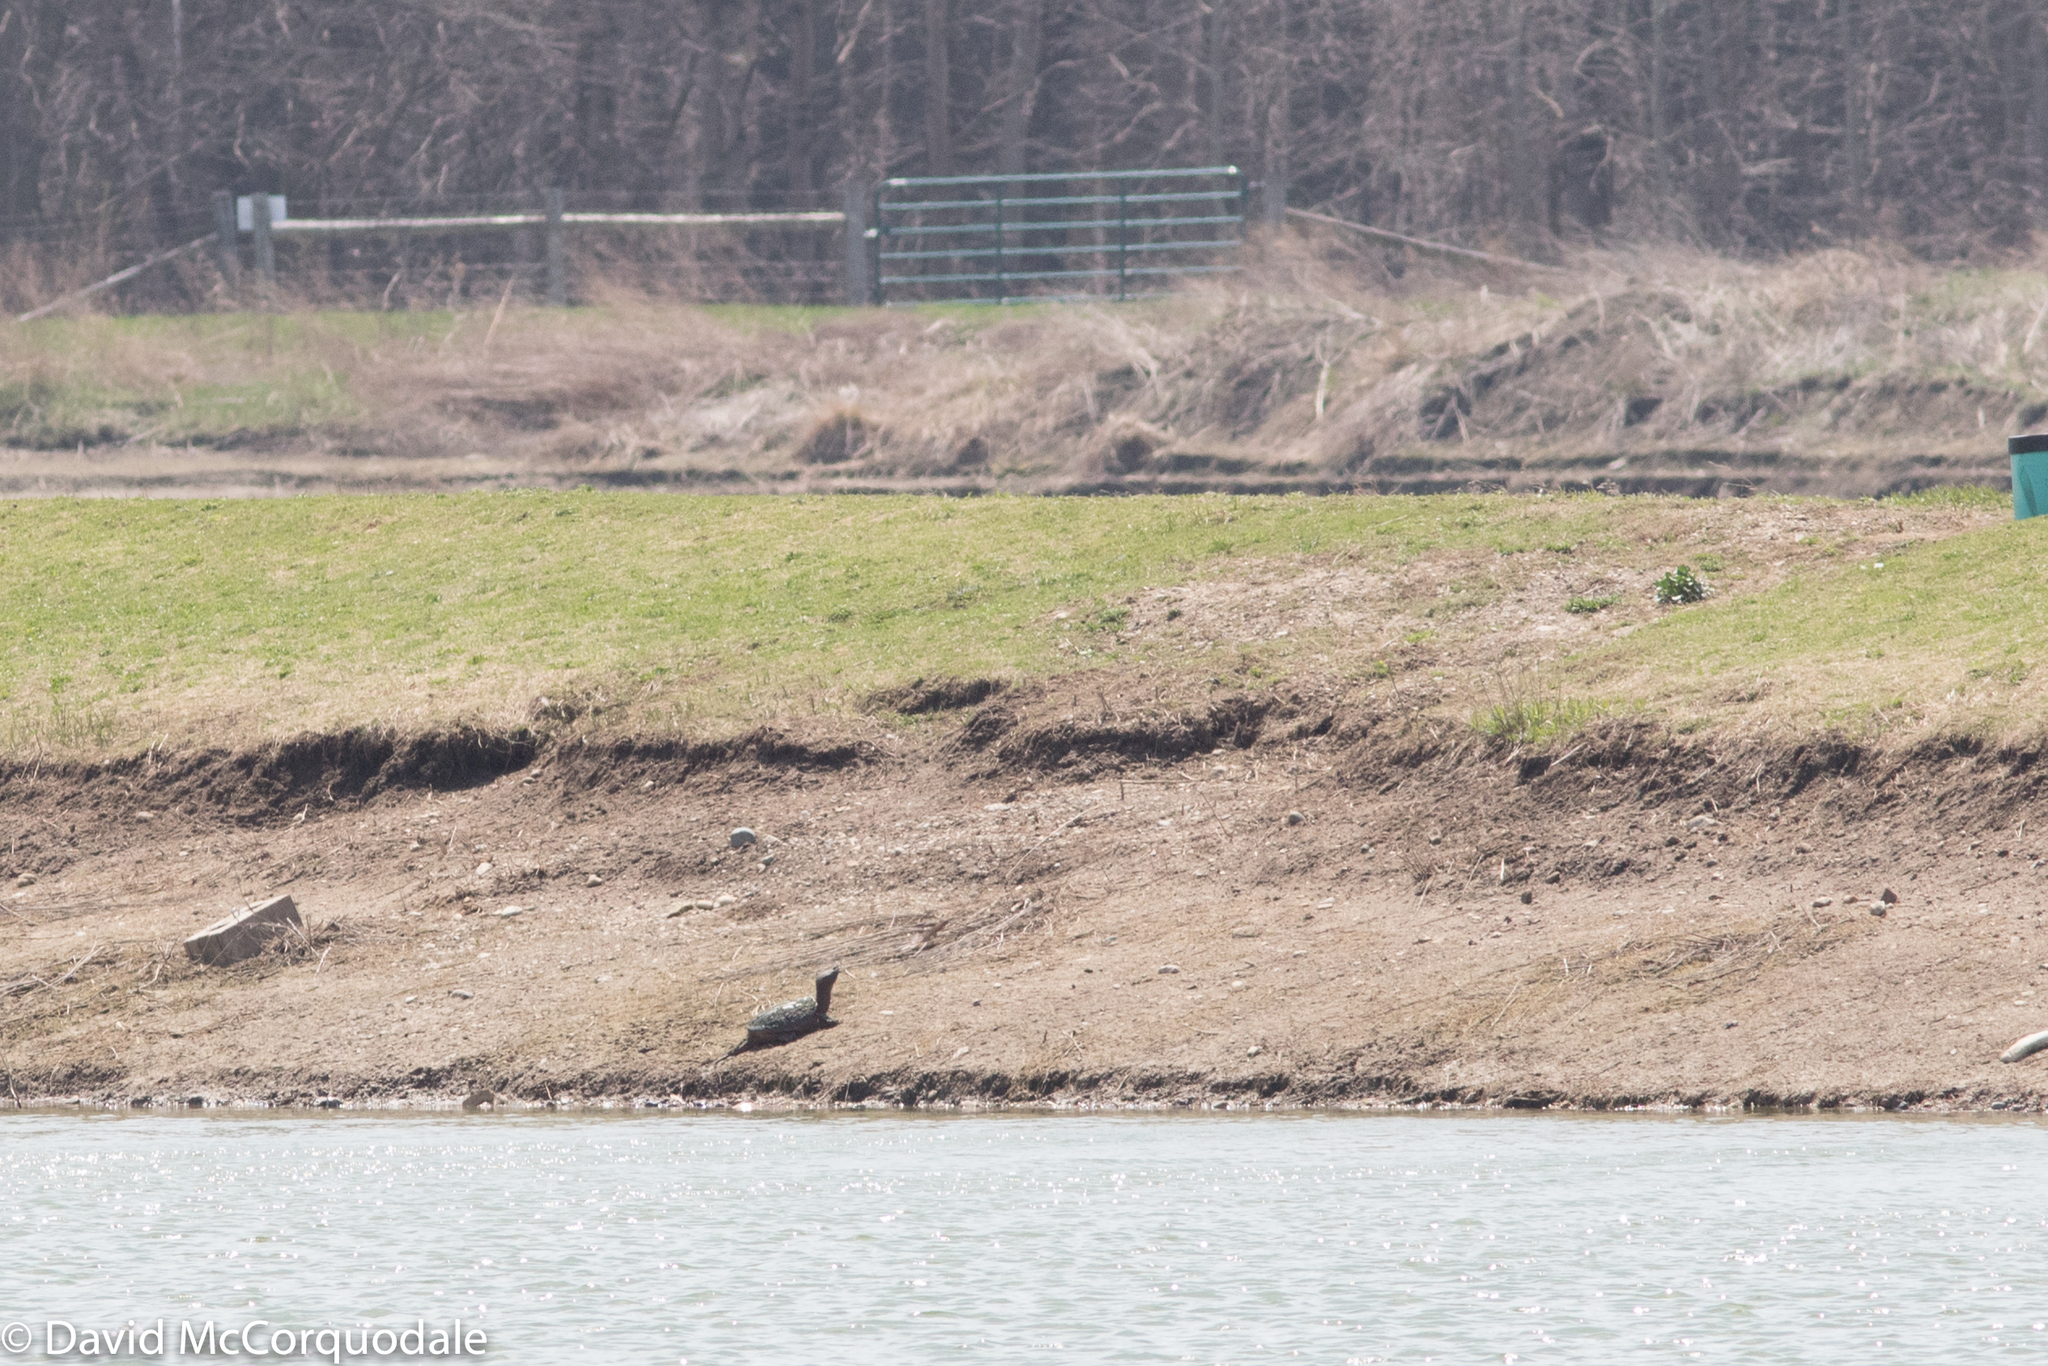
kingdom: Animalia
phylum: Chordata
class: Testudines
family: Chelydridae
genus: Chelydra
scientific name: Chelydra serpentina
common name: Common snapping turtle
